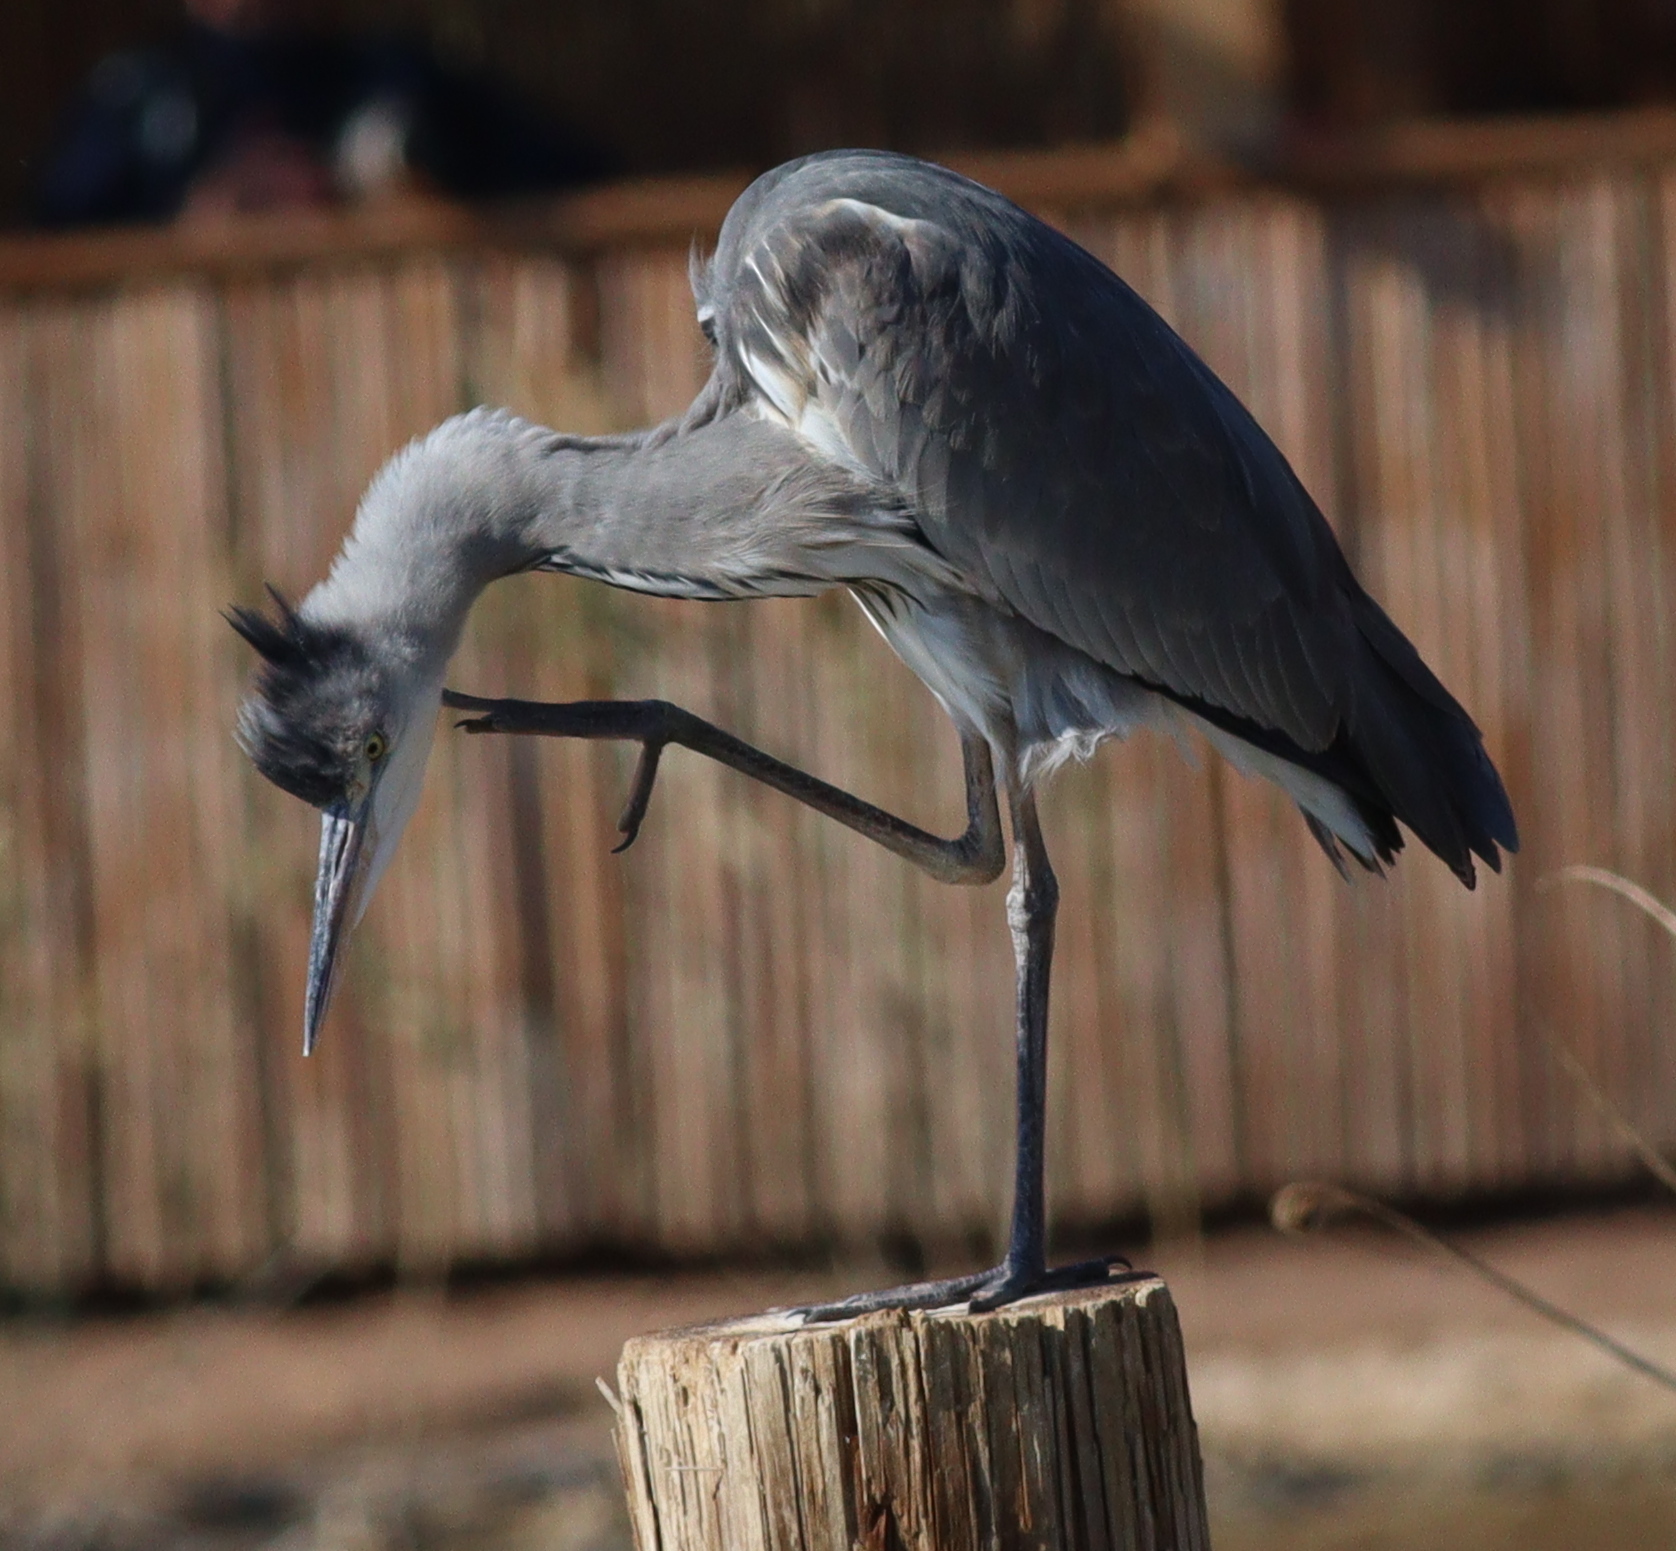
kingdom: Animalia
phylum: Chordata
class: Aves
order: Pelecaniformes
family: Ardeidae
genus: Ardea
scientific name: Ardea cinerea
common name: Grey heron
